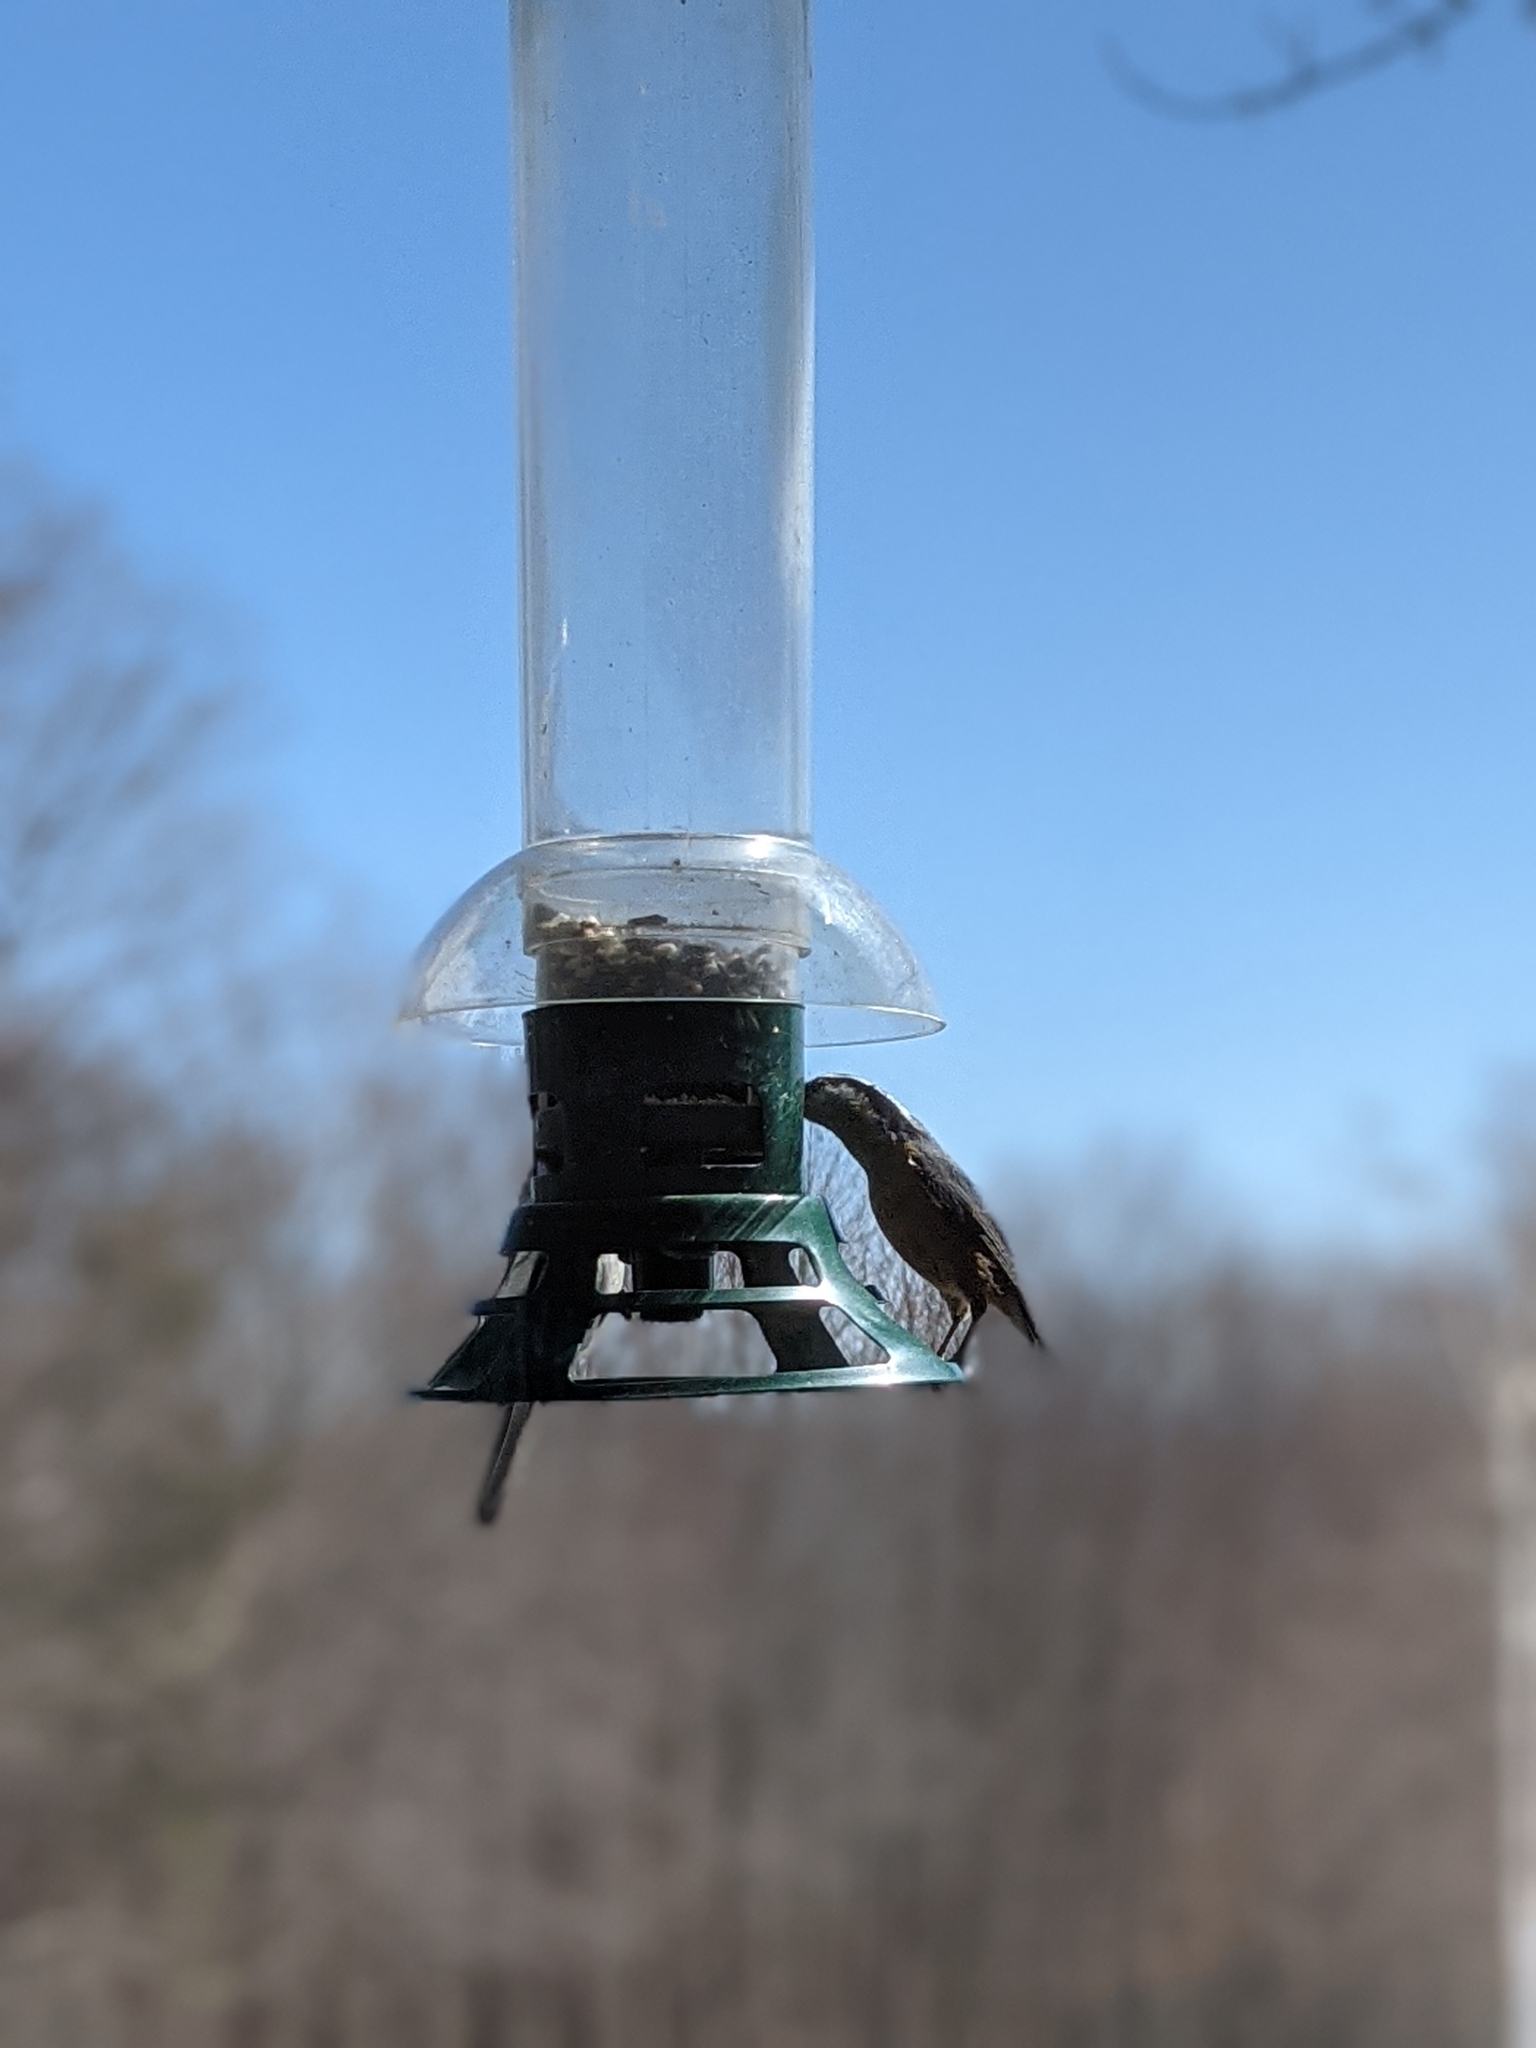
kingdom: Animalia
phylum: Chordata
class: Aves
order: Passeriformes
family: Sittidae
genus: Sitta
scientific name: Sitta canadensis
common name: Red-breasted nuthatch
